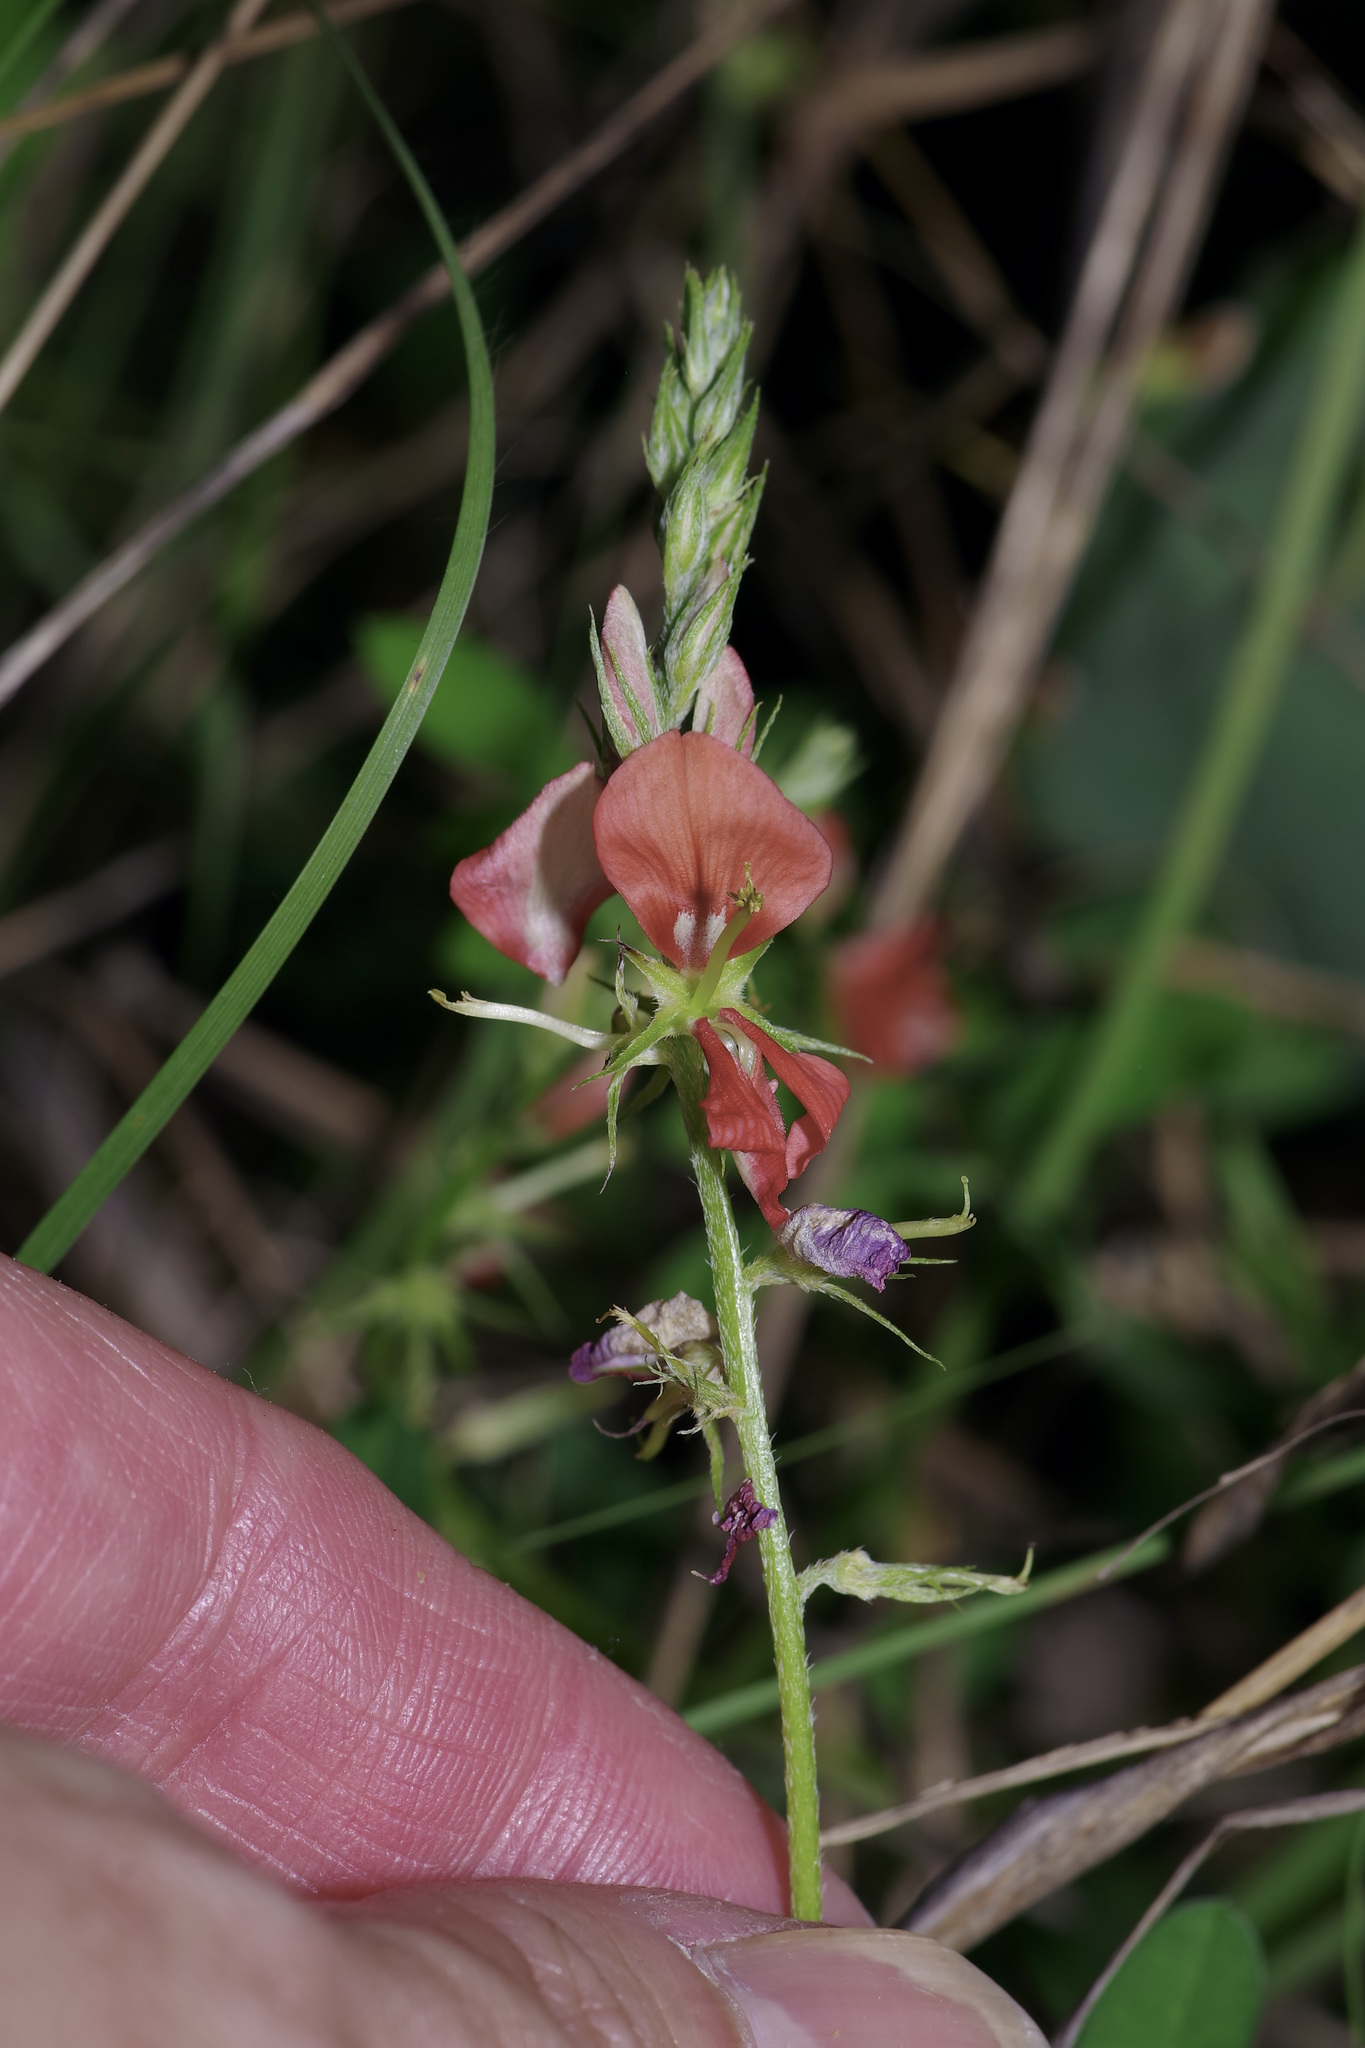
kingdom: Plantae
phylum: Tracheophyta
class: Magnoliopsida
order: Fabales
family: Fabaceae
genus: Indigofera
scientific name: Indigofera miniata
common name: Coast indigo
